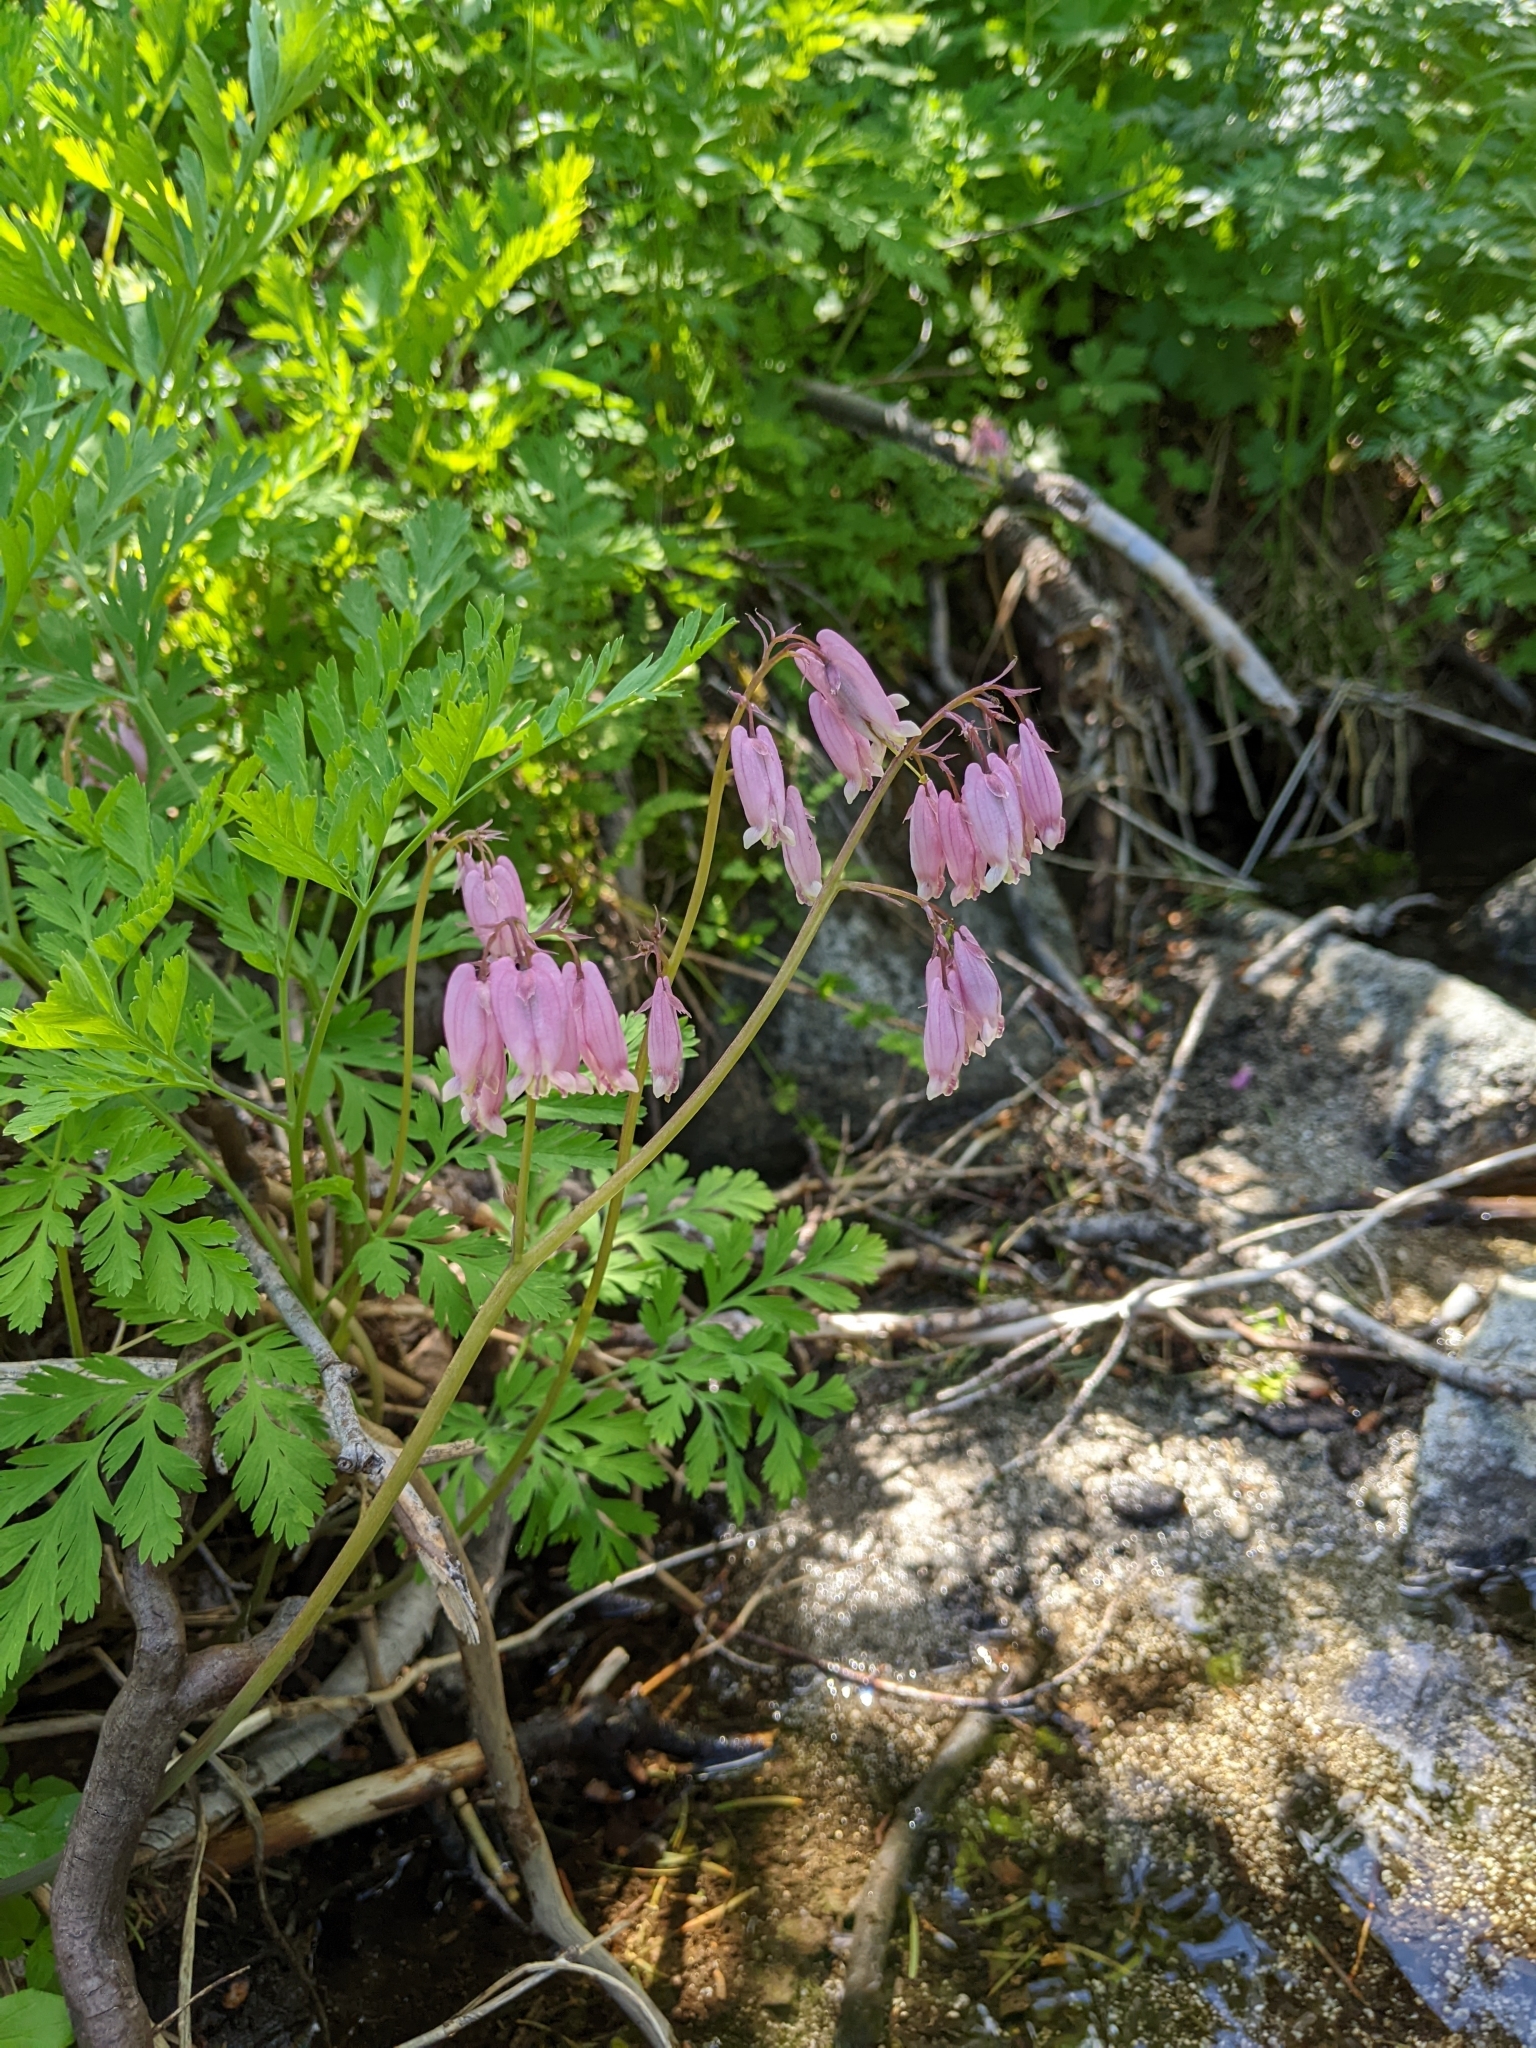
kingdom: Plantae
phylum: Tracheophyta
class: Magnoliopsida
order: Ranunculales
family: Papaveraceae
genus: Dicentra
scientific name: Dicentra formosa
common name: Bleeding-heart
